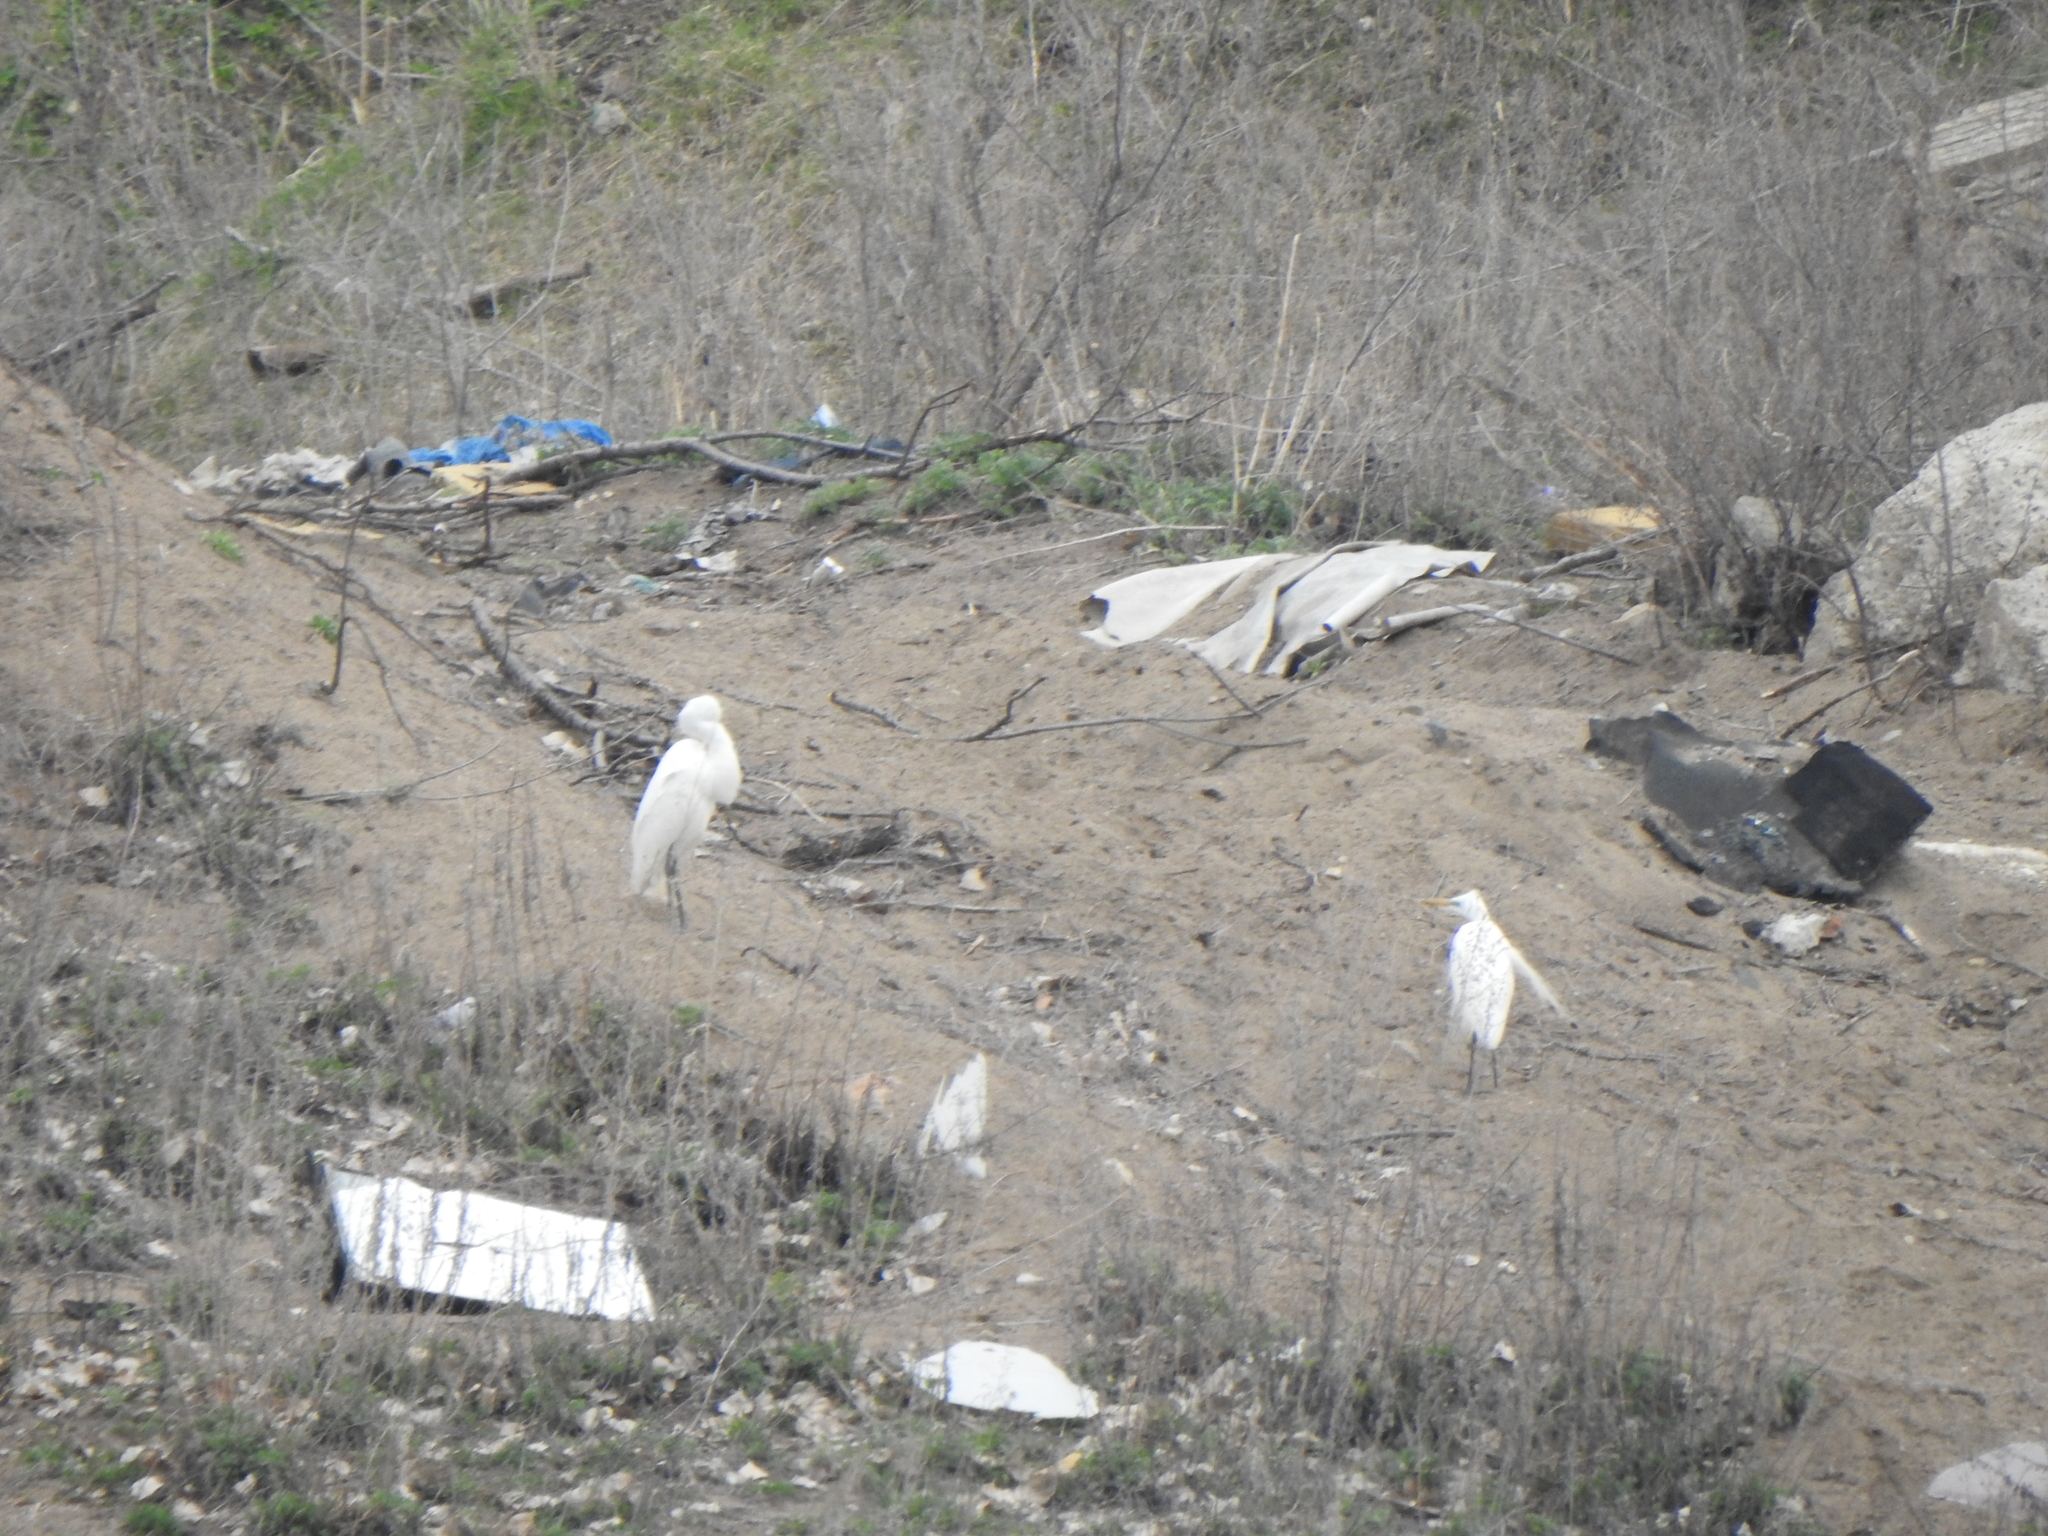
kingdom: Animalia
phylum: Chordata
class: Aves
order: Pelecaniformes
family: Ardeidae
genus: Ardea
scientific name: Ardea alba
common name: Great egret
